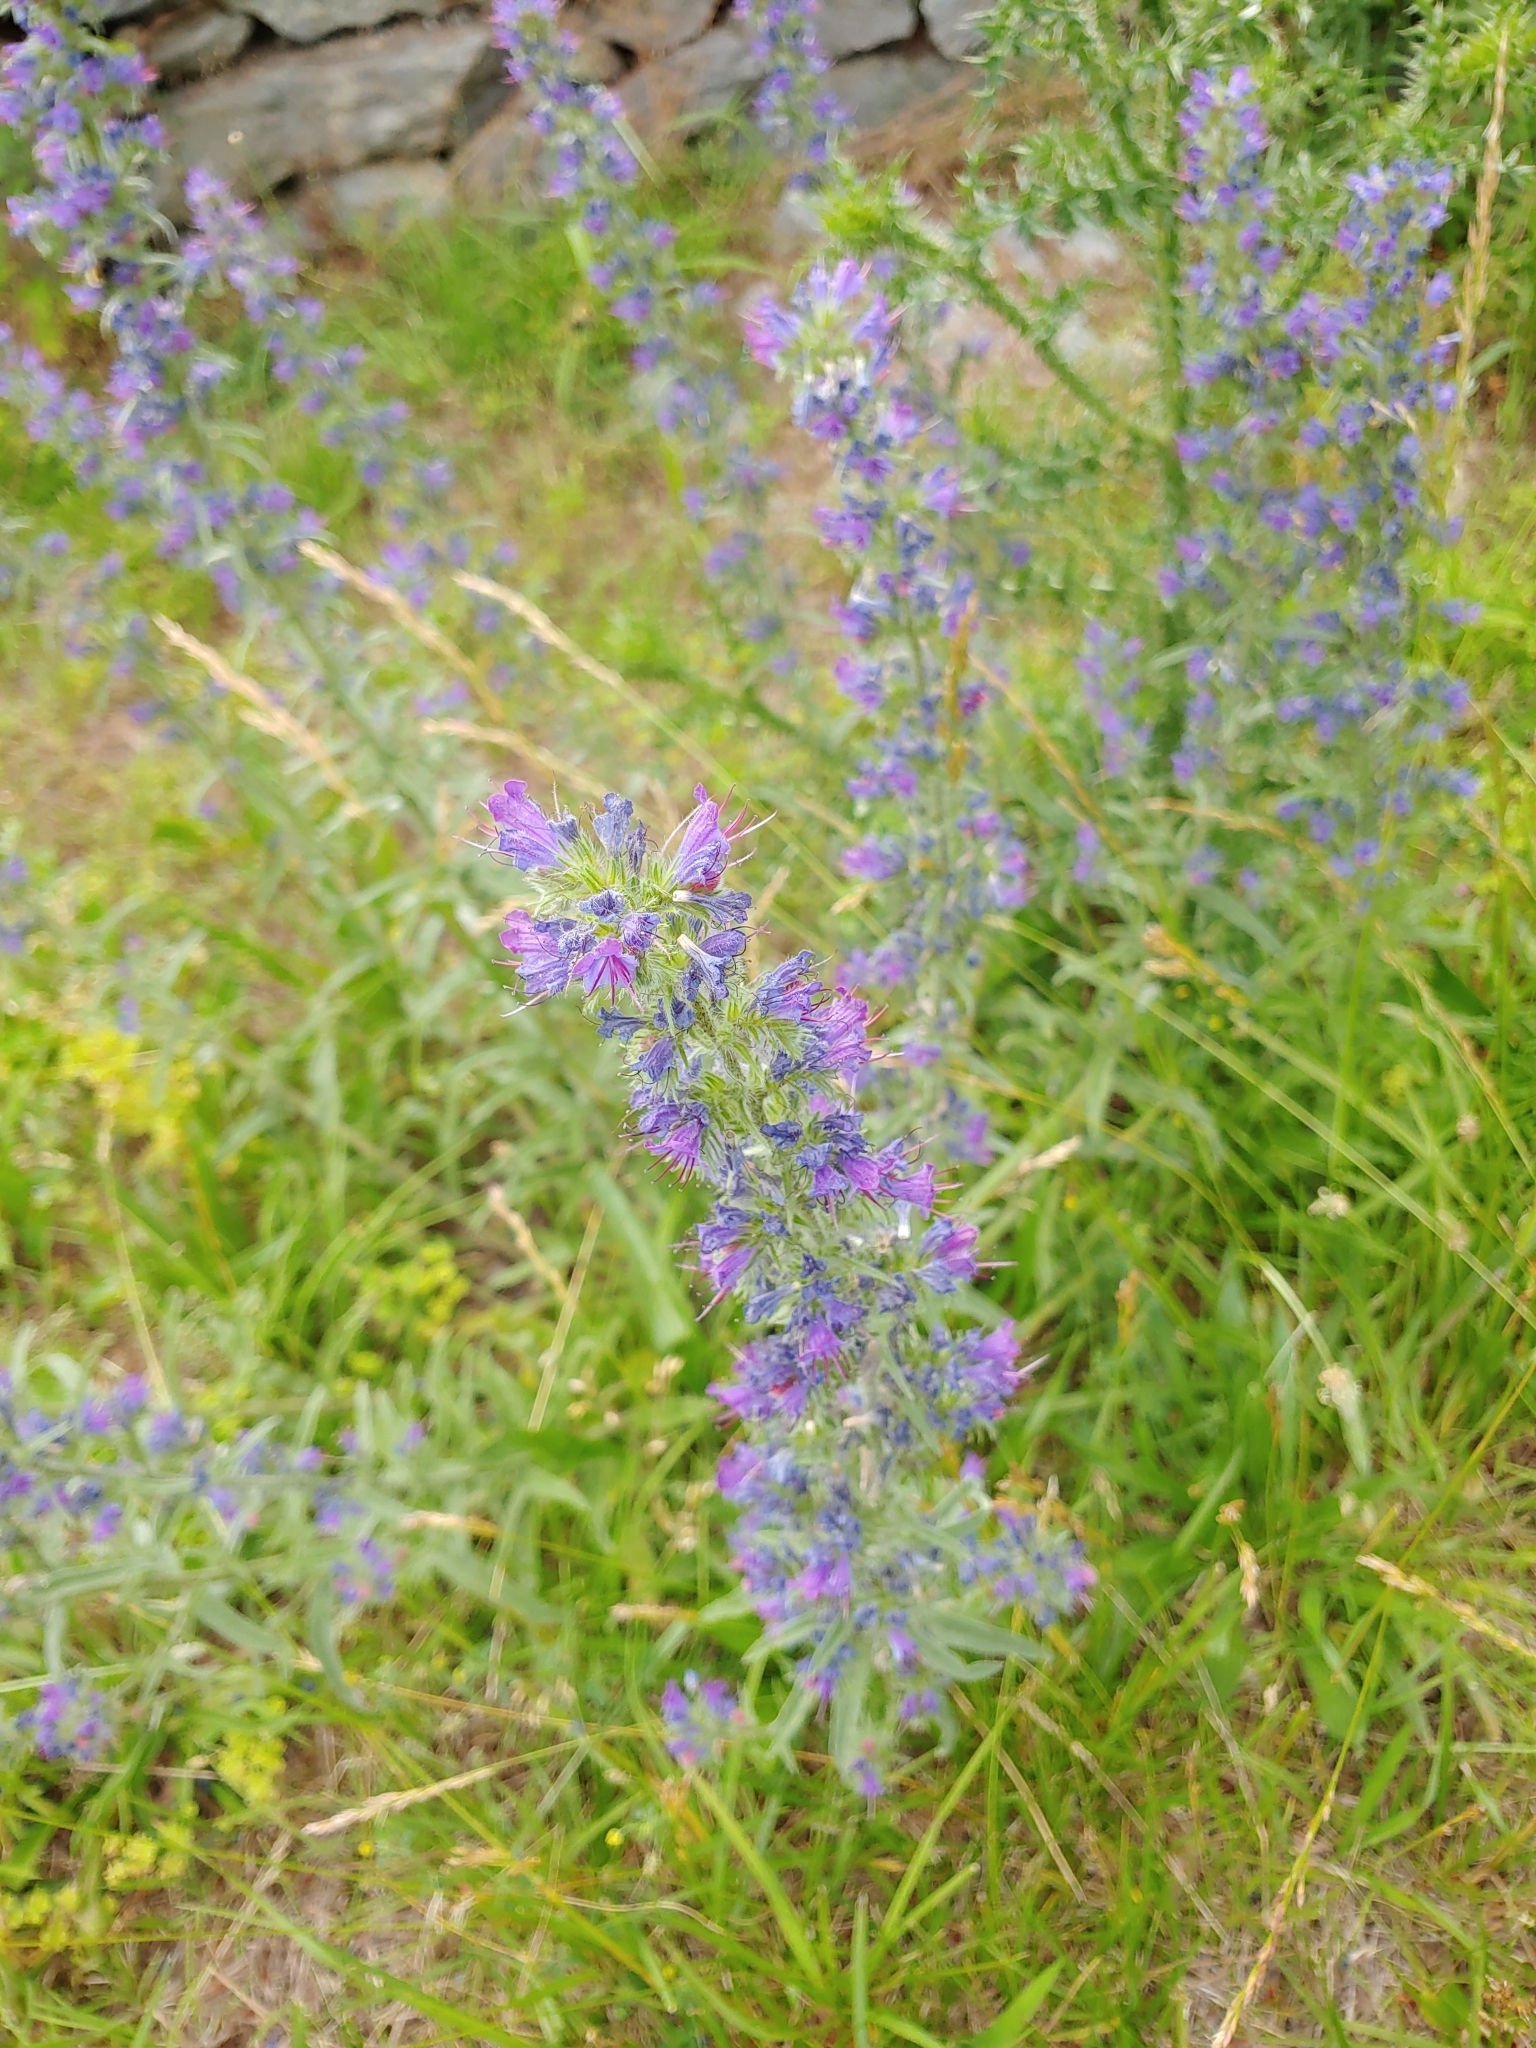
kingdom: Plantae
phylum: Tracheophyta
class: Magnoliopsida
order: Boraginales
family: Boraginaceae
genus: Echium
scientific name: Echium vulgare
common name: Common viper's bugloss
